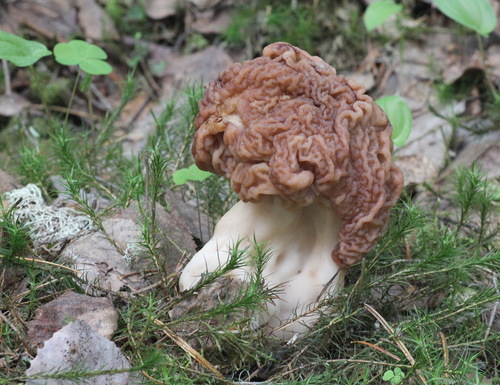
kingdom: Fungi
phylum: Ascomycota
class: Pezizomycetes
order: Pezizales
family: Discinaceae
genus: Gyromitra
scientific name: Gyromitra esculenta
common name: False morel
